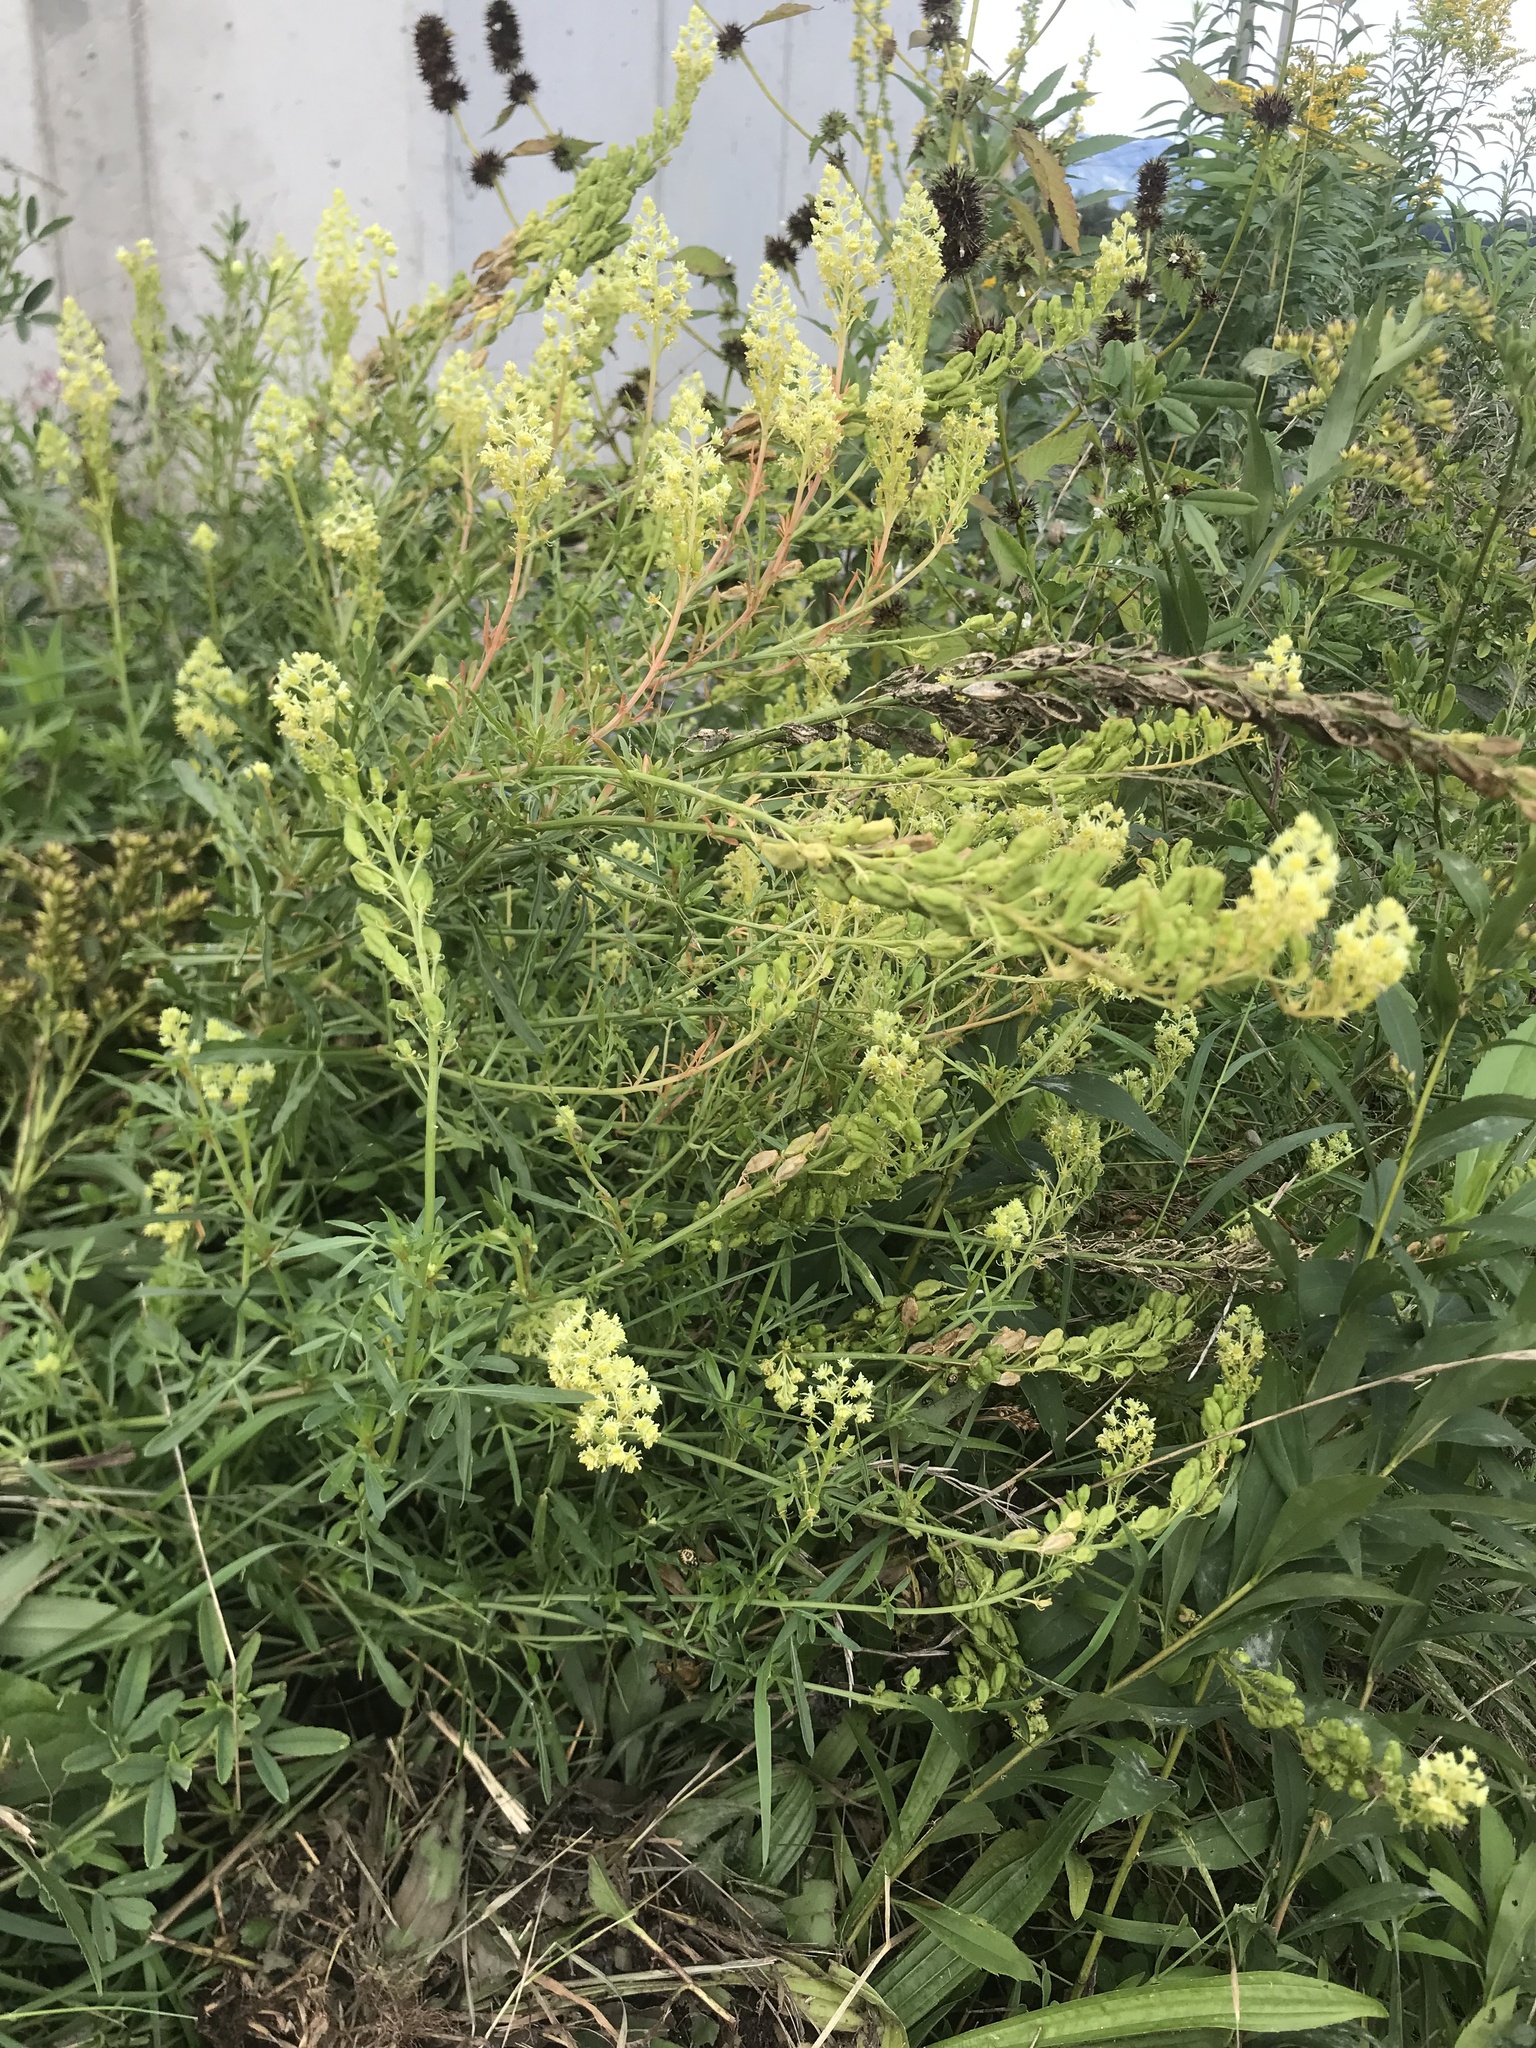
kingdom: Plantae
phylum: Tracheophyta
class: Magnoliopsida
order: Brassicales
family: Resedaceae
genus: Reseda
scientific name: Reseda lutea
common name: Wild mignonette
